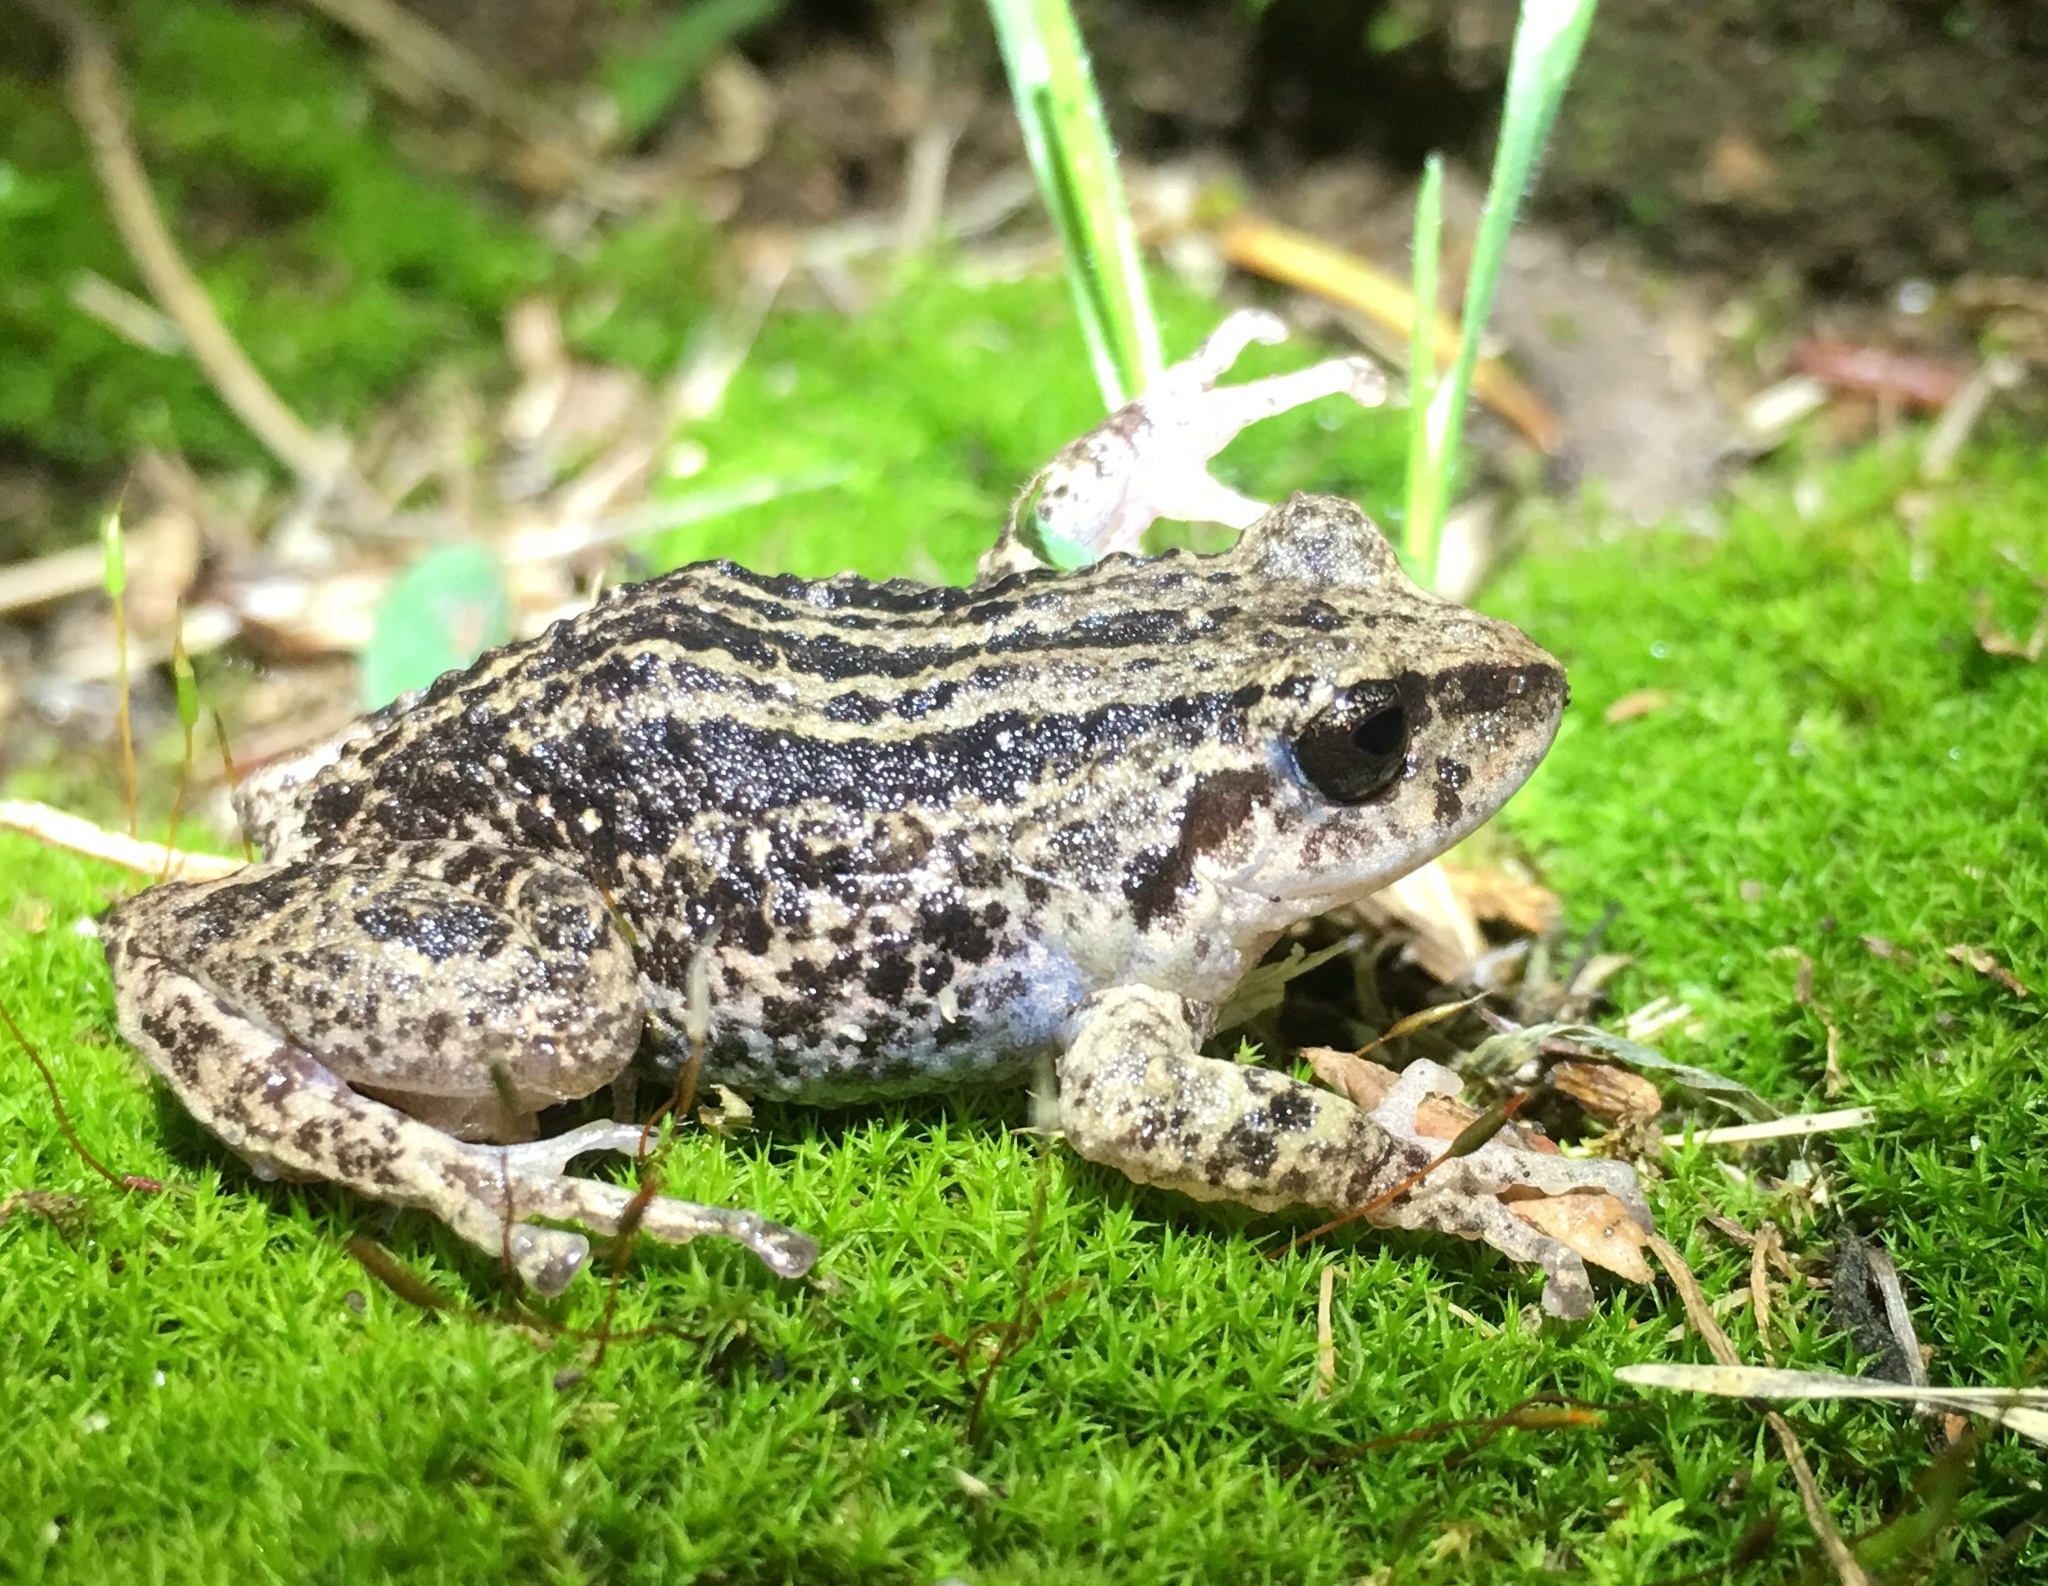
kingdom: Animalia
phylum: Chordata
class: Amphibia
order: Anura
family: Craugastoridae
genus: Pristimantis
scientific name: Pristimantis unistrigatus
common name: Striped robber frog
